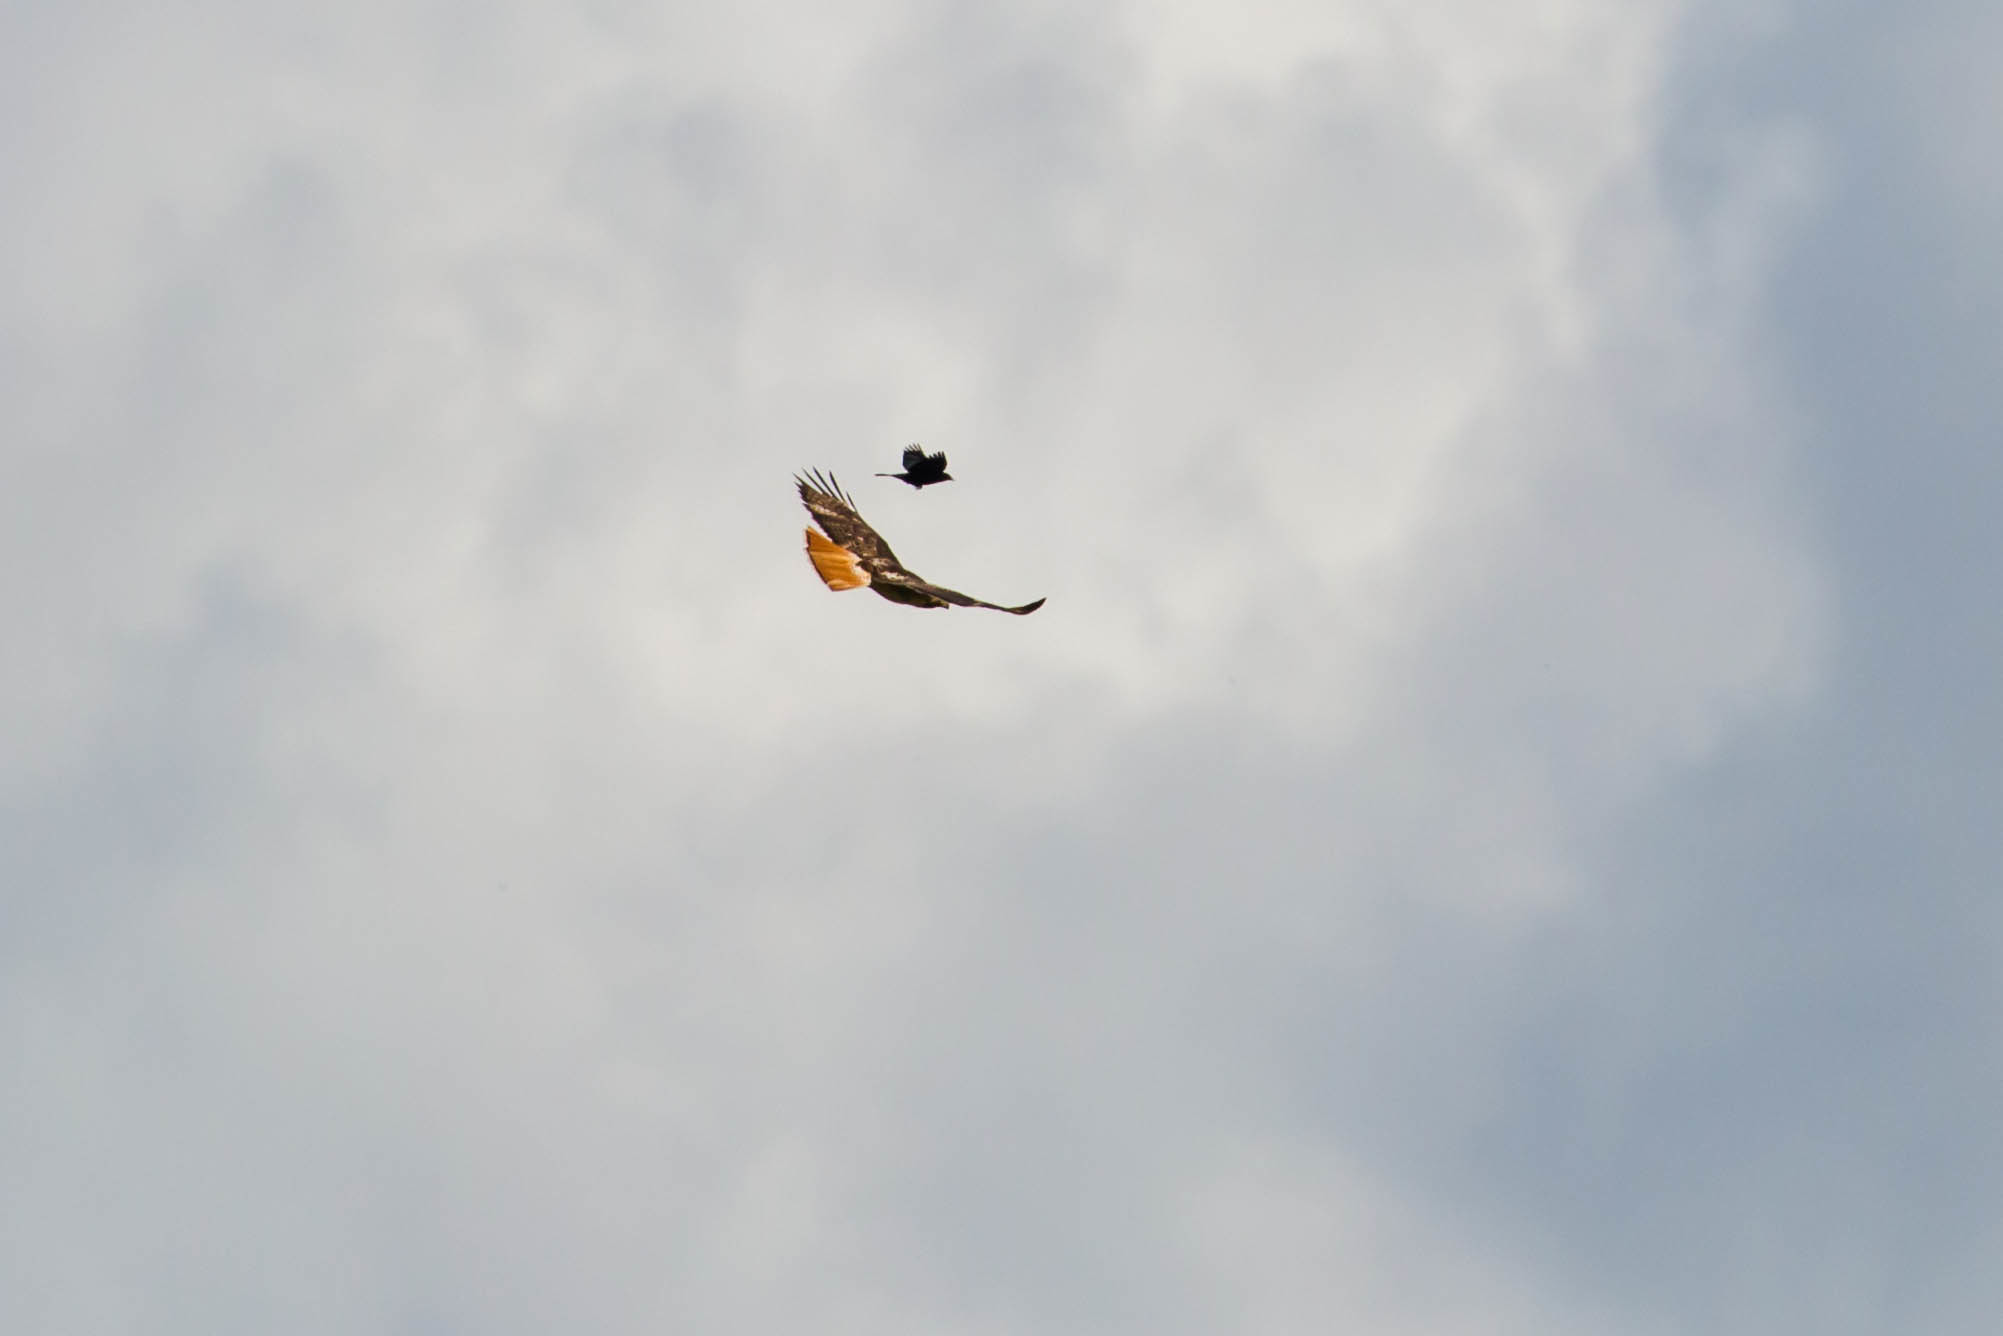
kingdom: Animalia
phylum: Chordata
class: Aves
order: Accipitriformes
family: Accipitridae
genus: Buteo
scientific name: Buteo jamaicensis
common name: Red-tailed hawk
